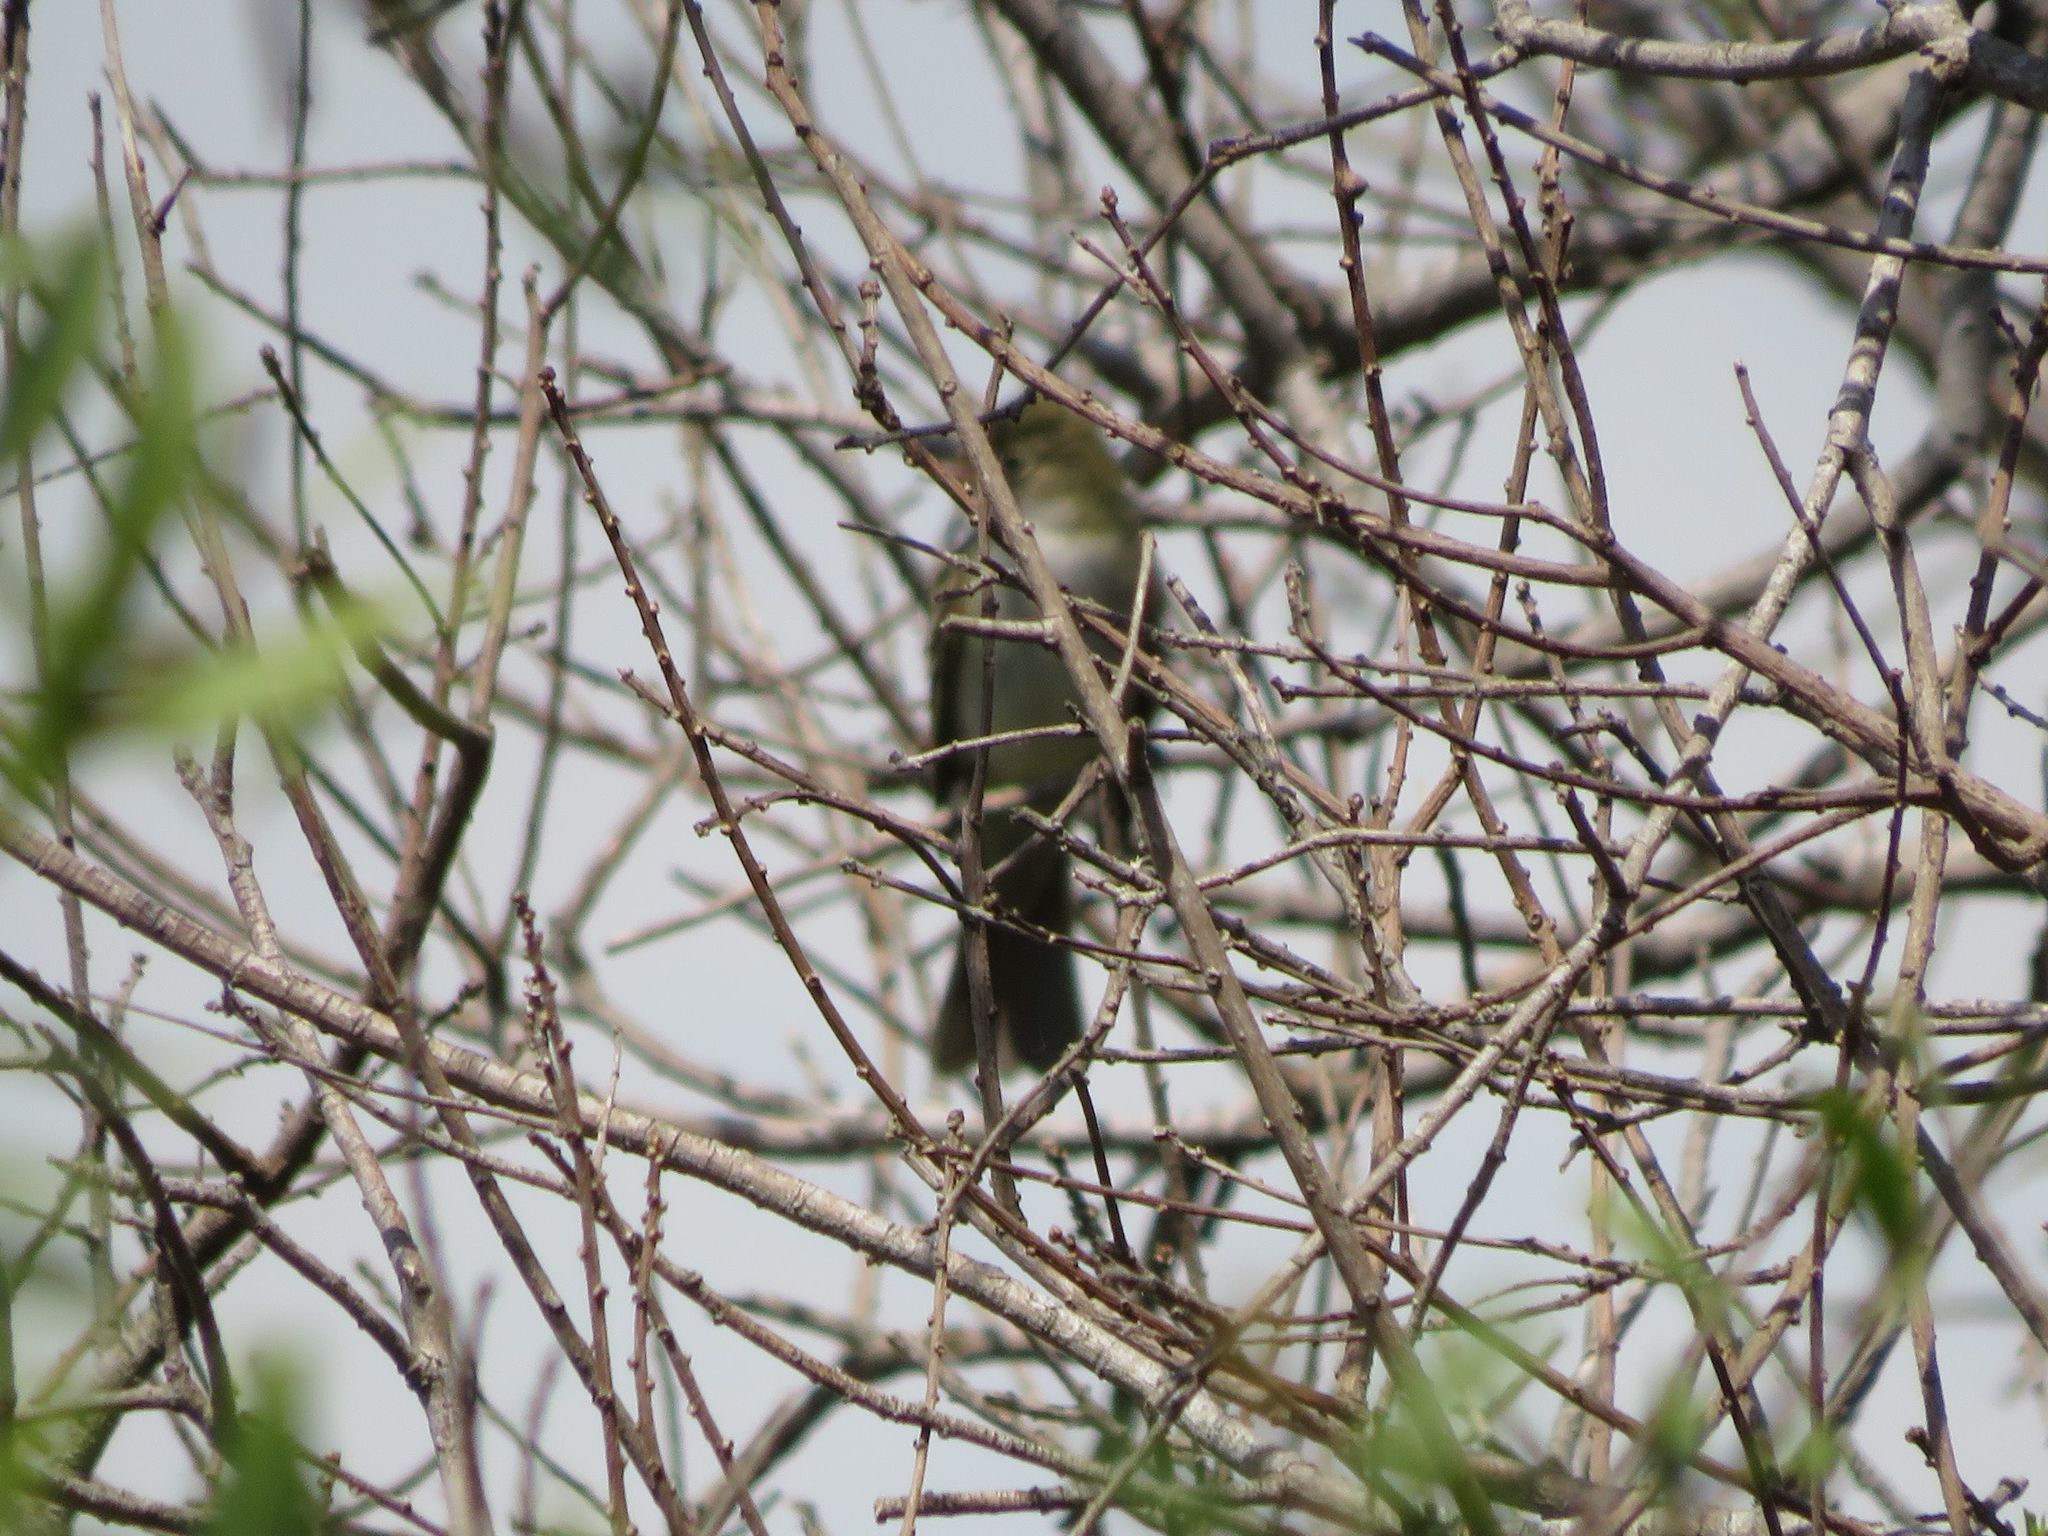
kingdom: Animalia
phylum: Chordata
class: Aves
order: Passeriformes
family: Tyrannidae
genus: Elaenia
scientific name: Elaenia parvirostris
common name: Small-billed elaenia
